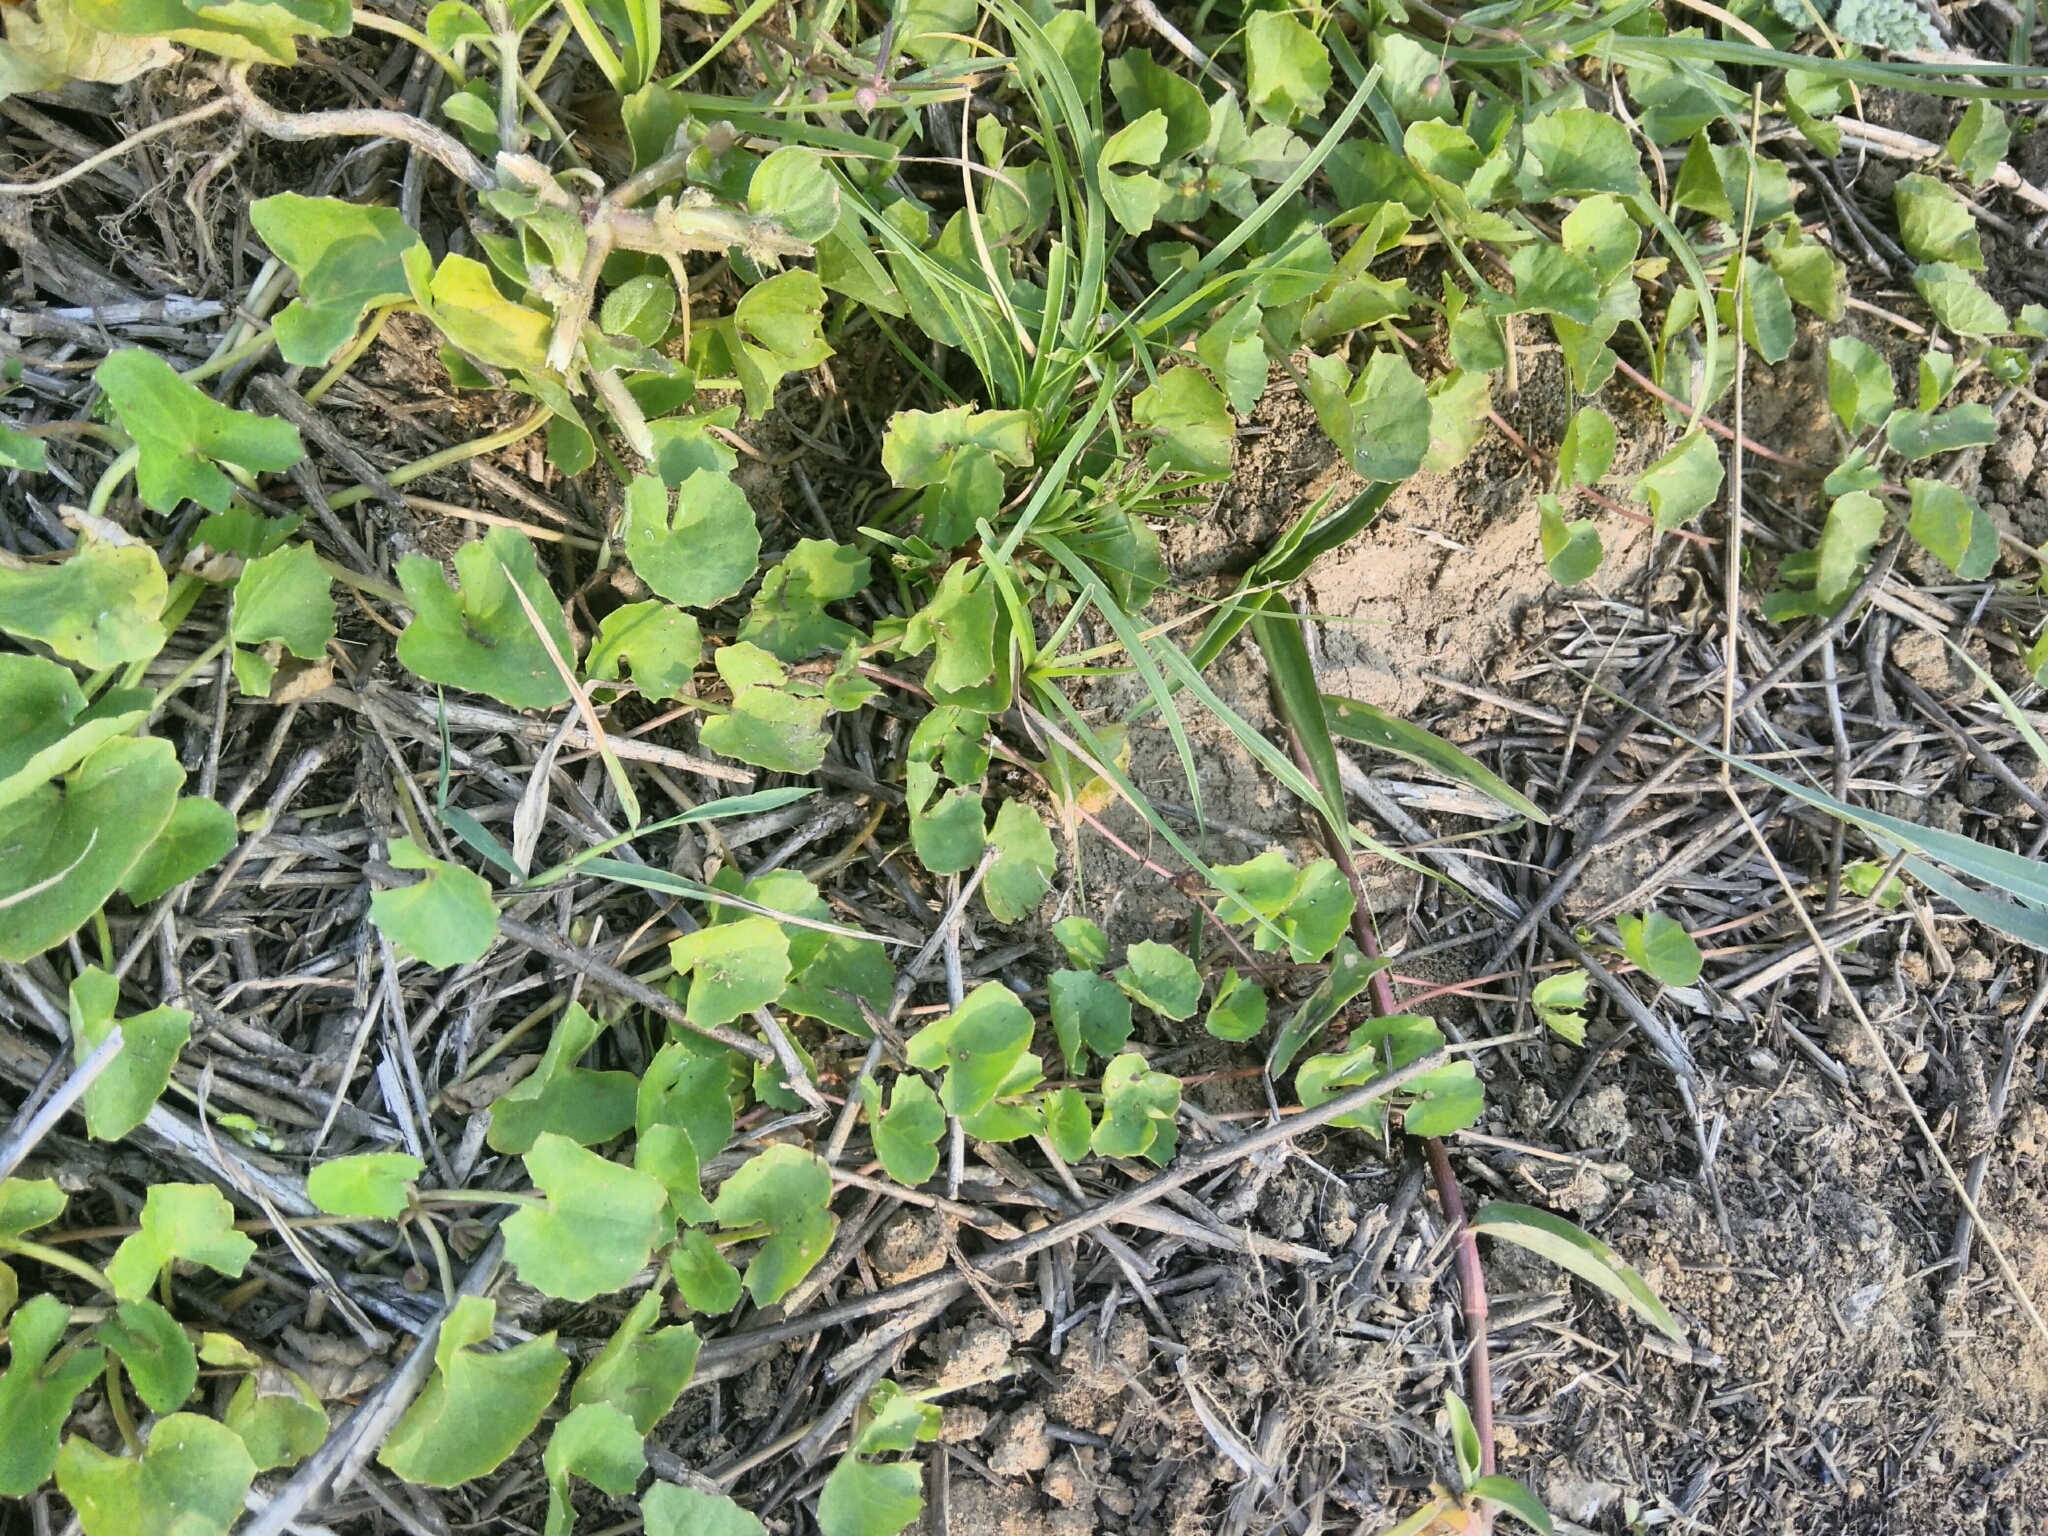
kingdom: Plantae
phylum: Tracheophyta
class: Magnoliopsida
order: Apiales
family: Apiaceae
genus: Centella
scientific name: Centella asiatica
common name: Spadeleaf
